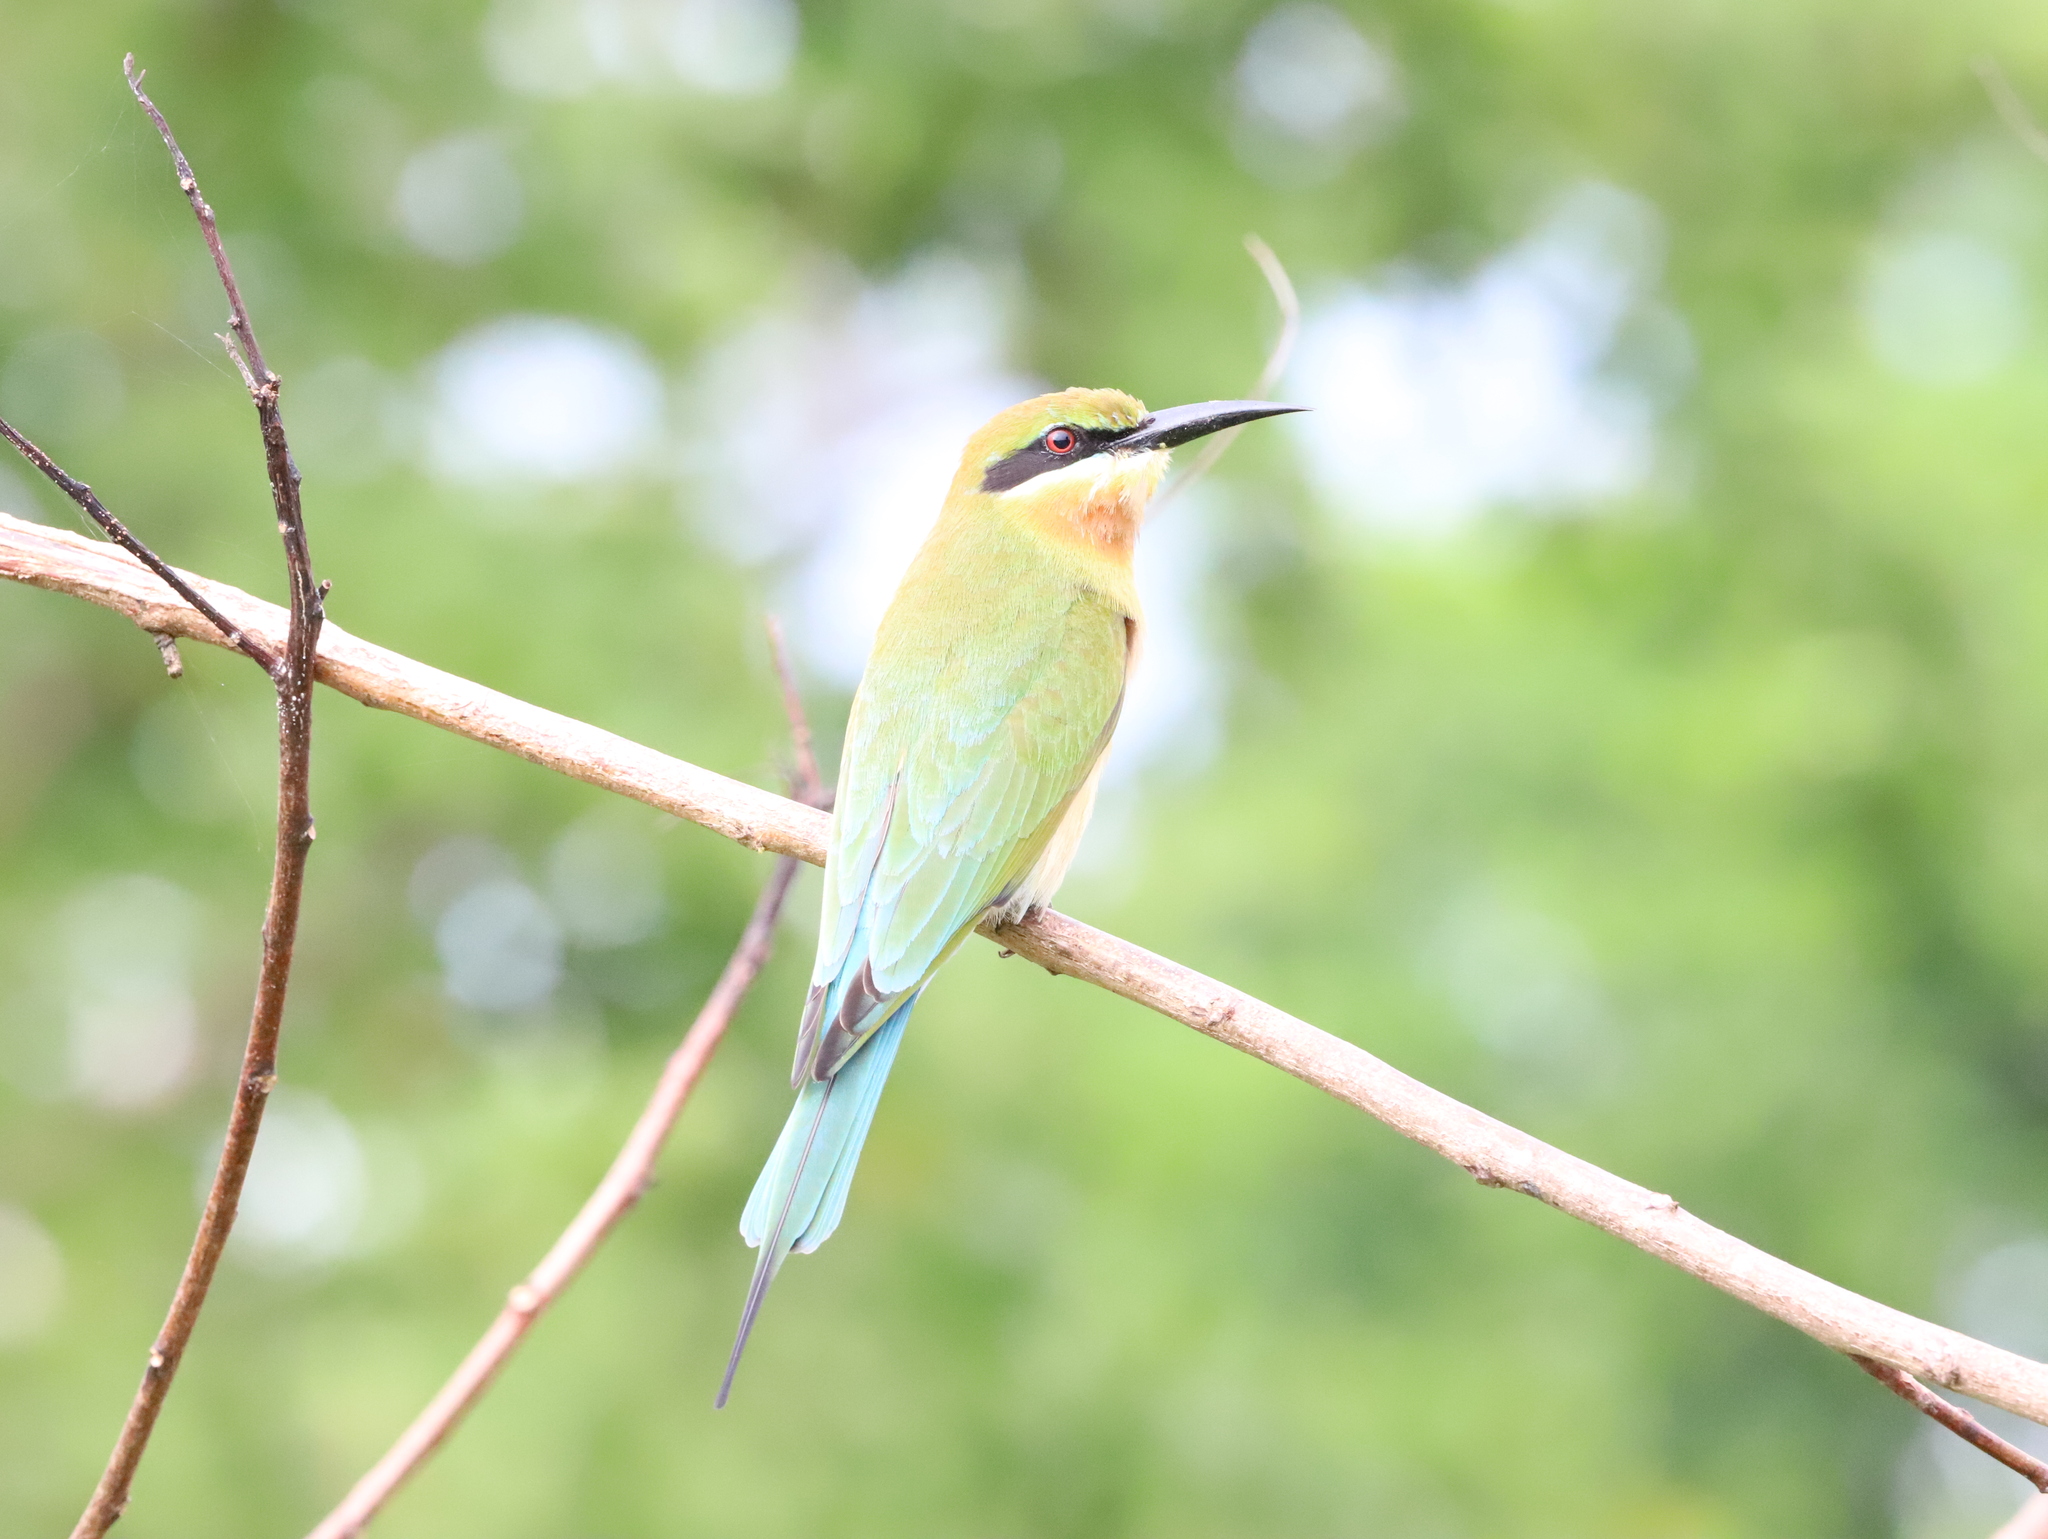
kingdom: Animalia
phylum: Chordata
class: Aves
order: Coraciiformes
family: Meropidae
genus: Merops
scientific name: Merops philippinus
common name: Blue-tailed bee-eater
